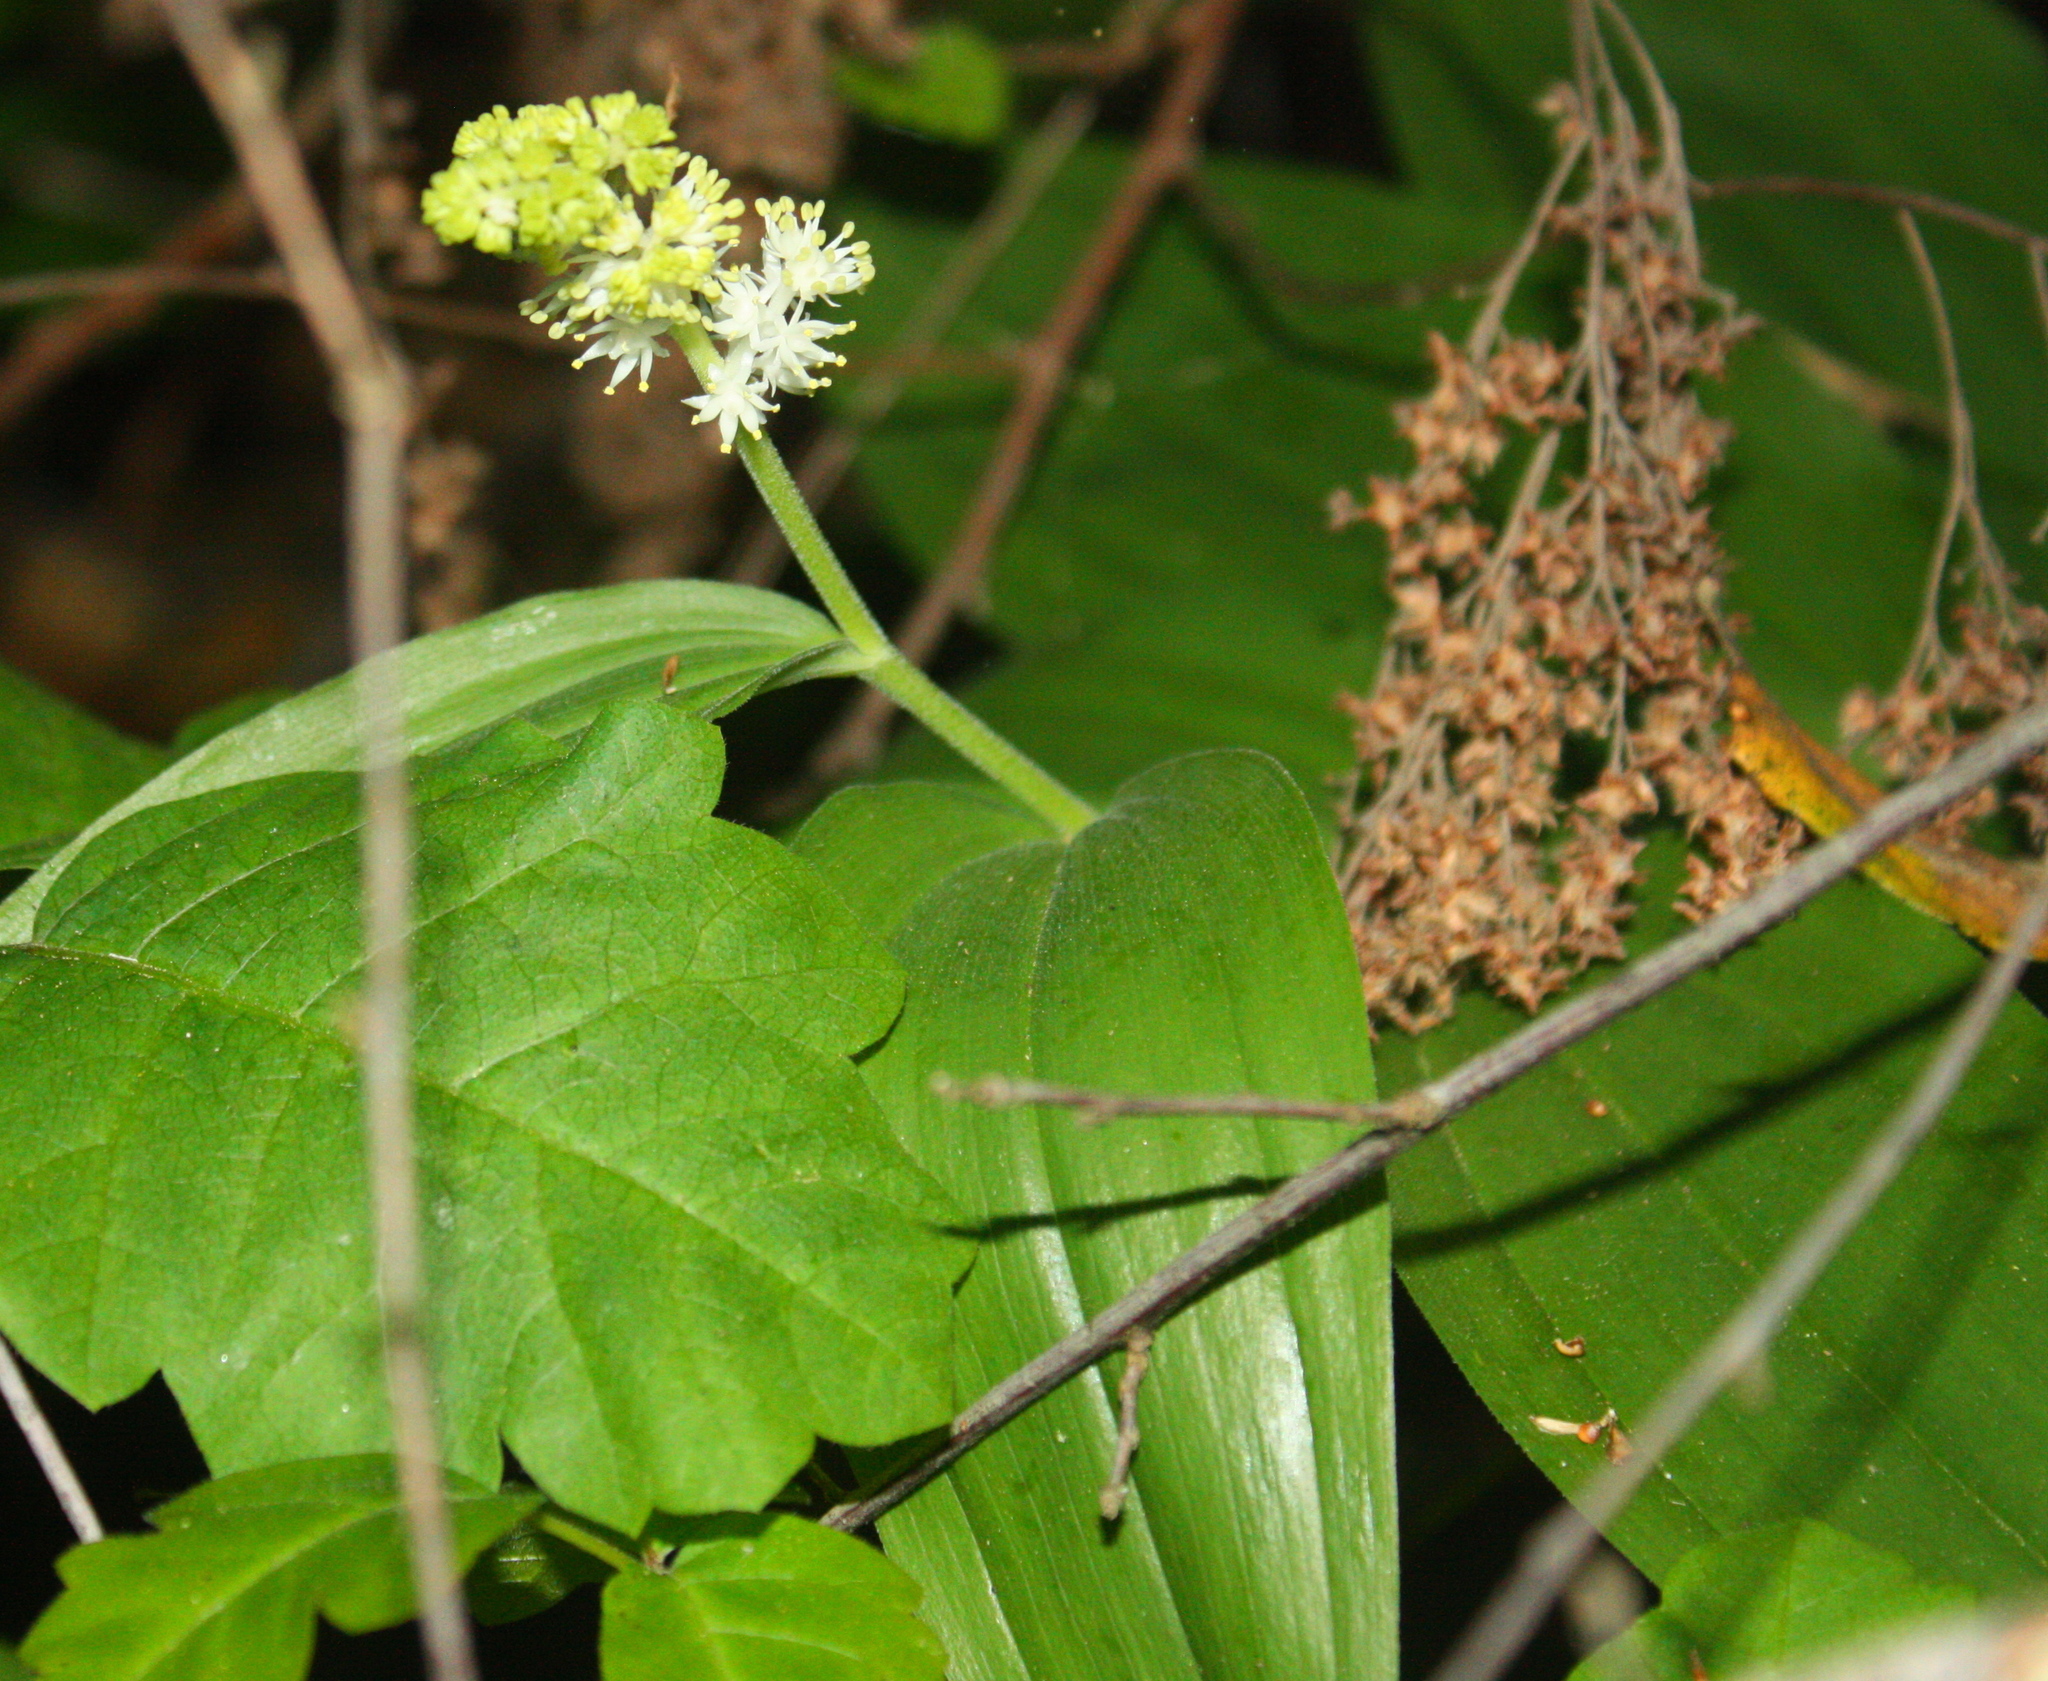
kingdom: Plantae
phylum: Tracheophyta
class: Liliopsida
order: Asparagales
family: Asparagaceae
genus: Maianthemum
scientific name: Maianthemum racemosum
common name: False spikenard
